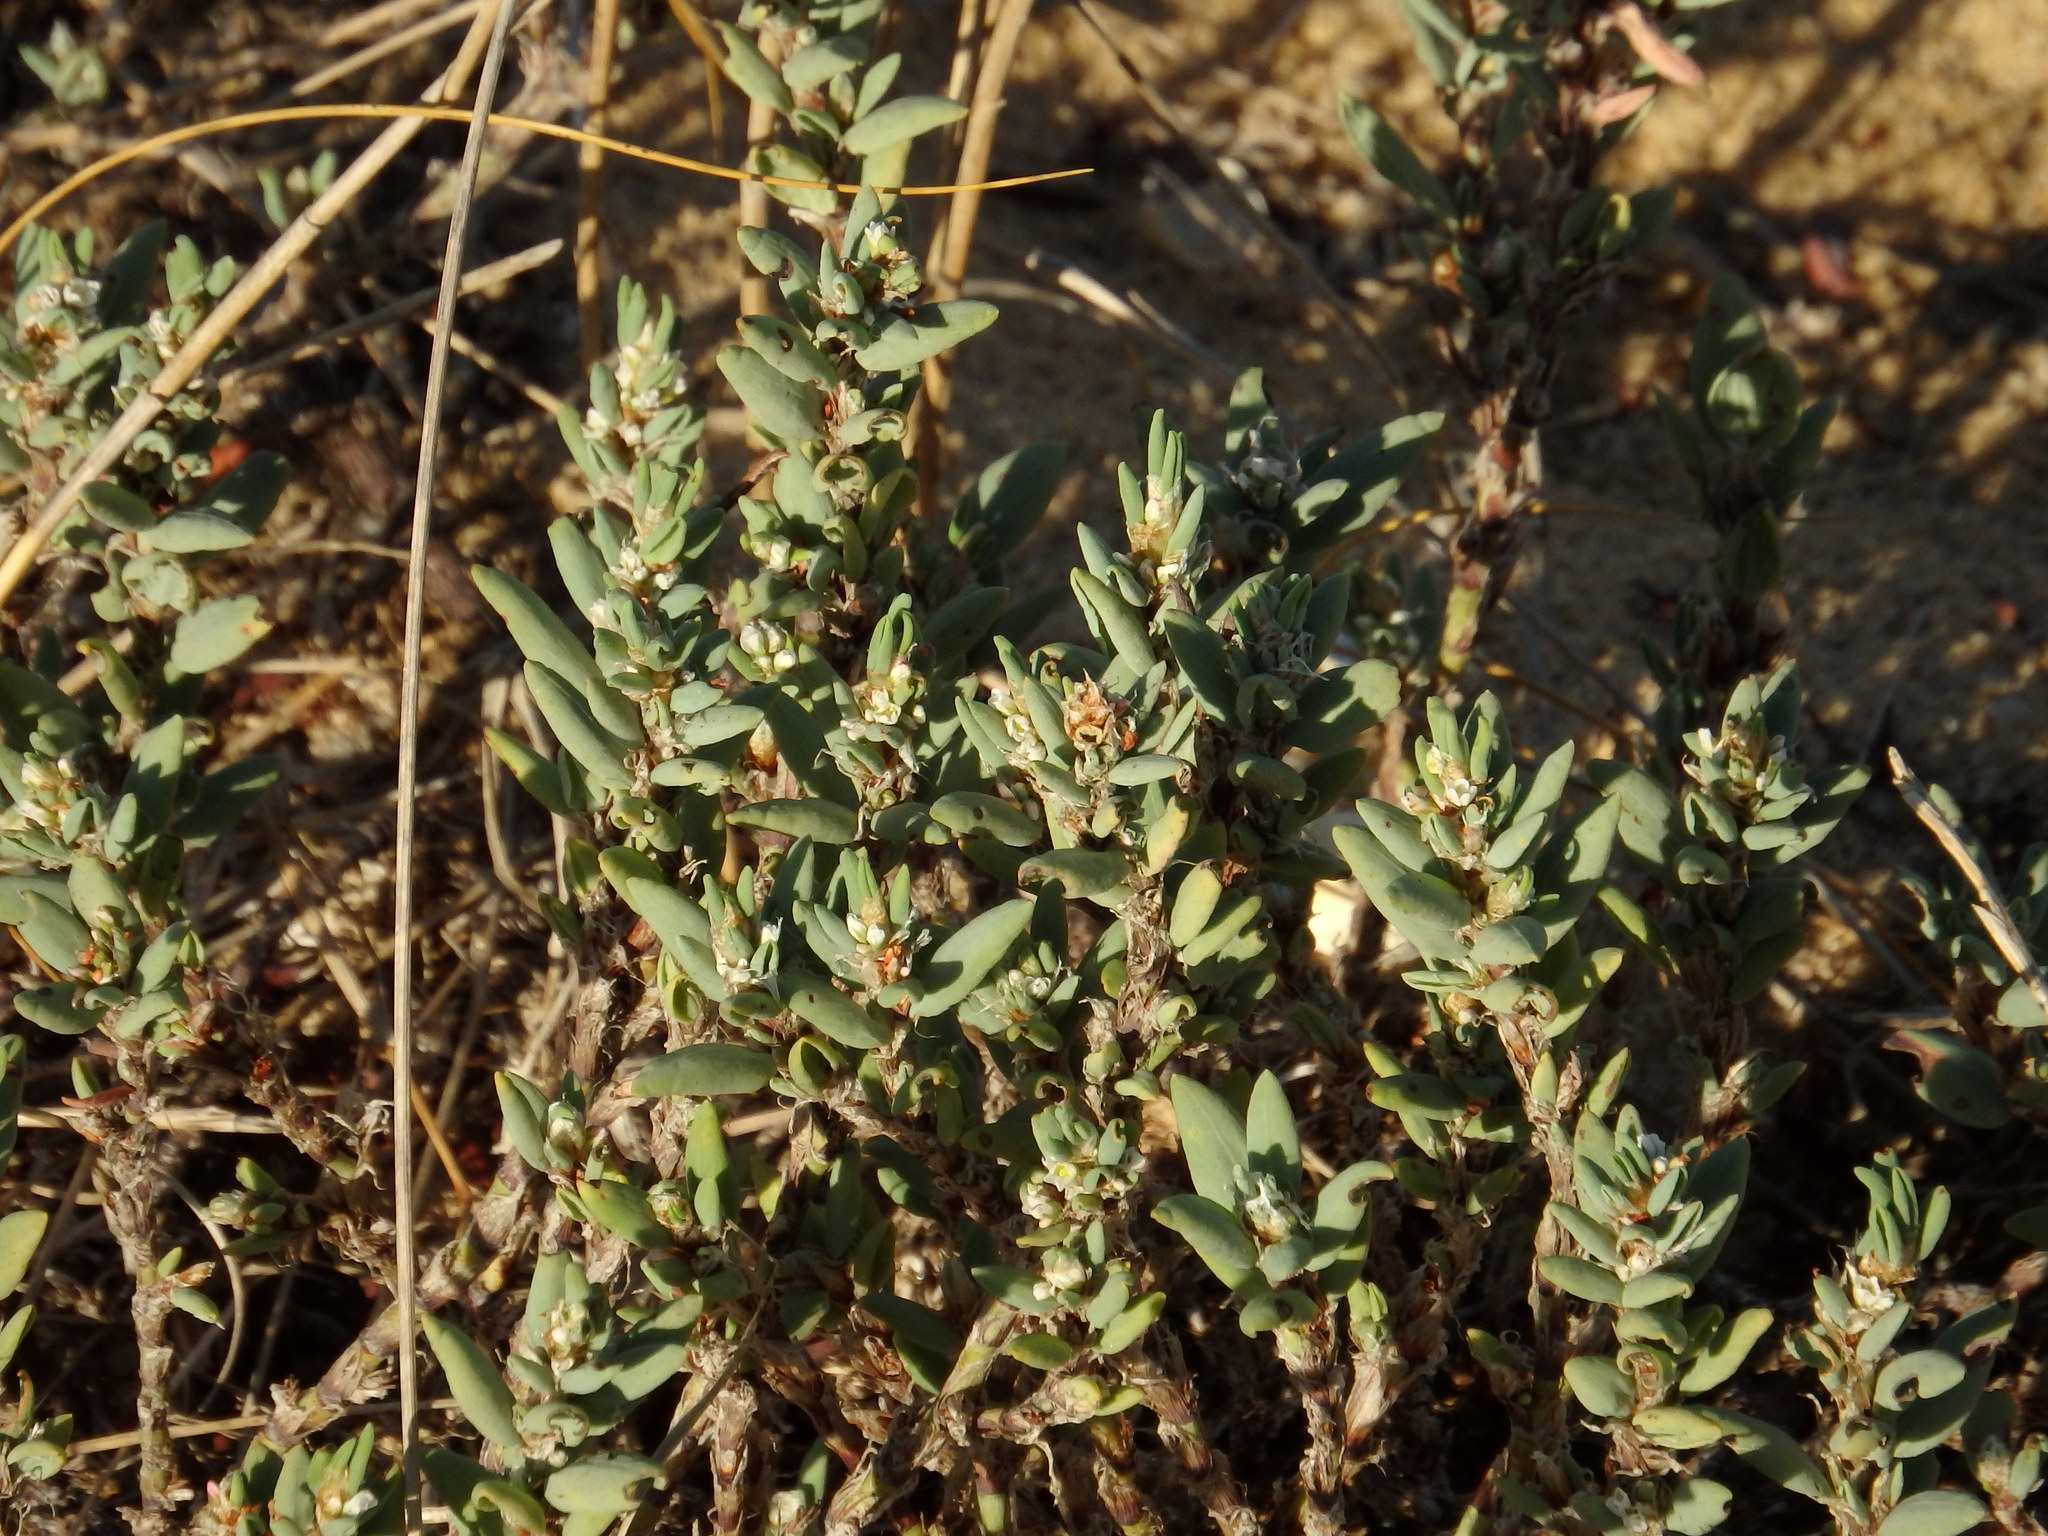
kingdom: Plantae
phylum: Tracheophyta
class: Magnoliopsida
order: Caryophyllales
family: Polygonaceae
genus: Polygonum
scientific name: Polygonum maritimum
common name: Sea knotgrass
